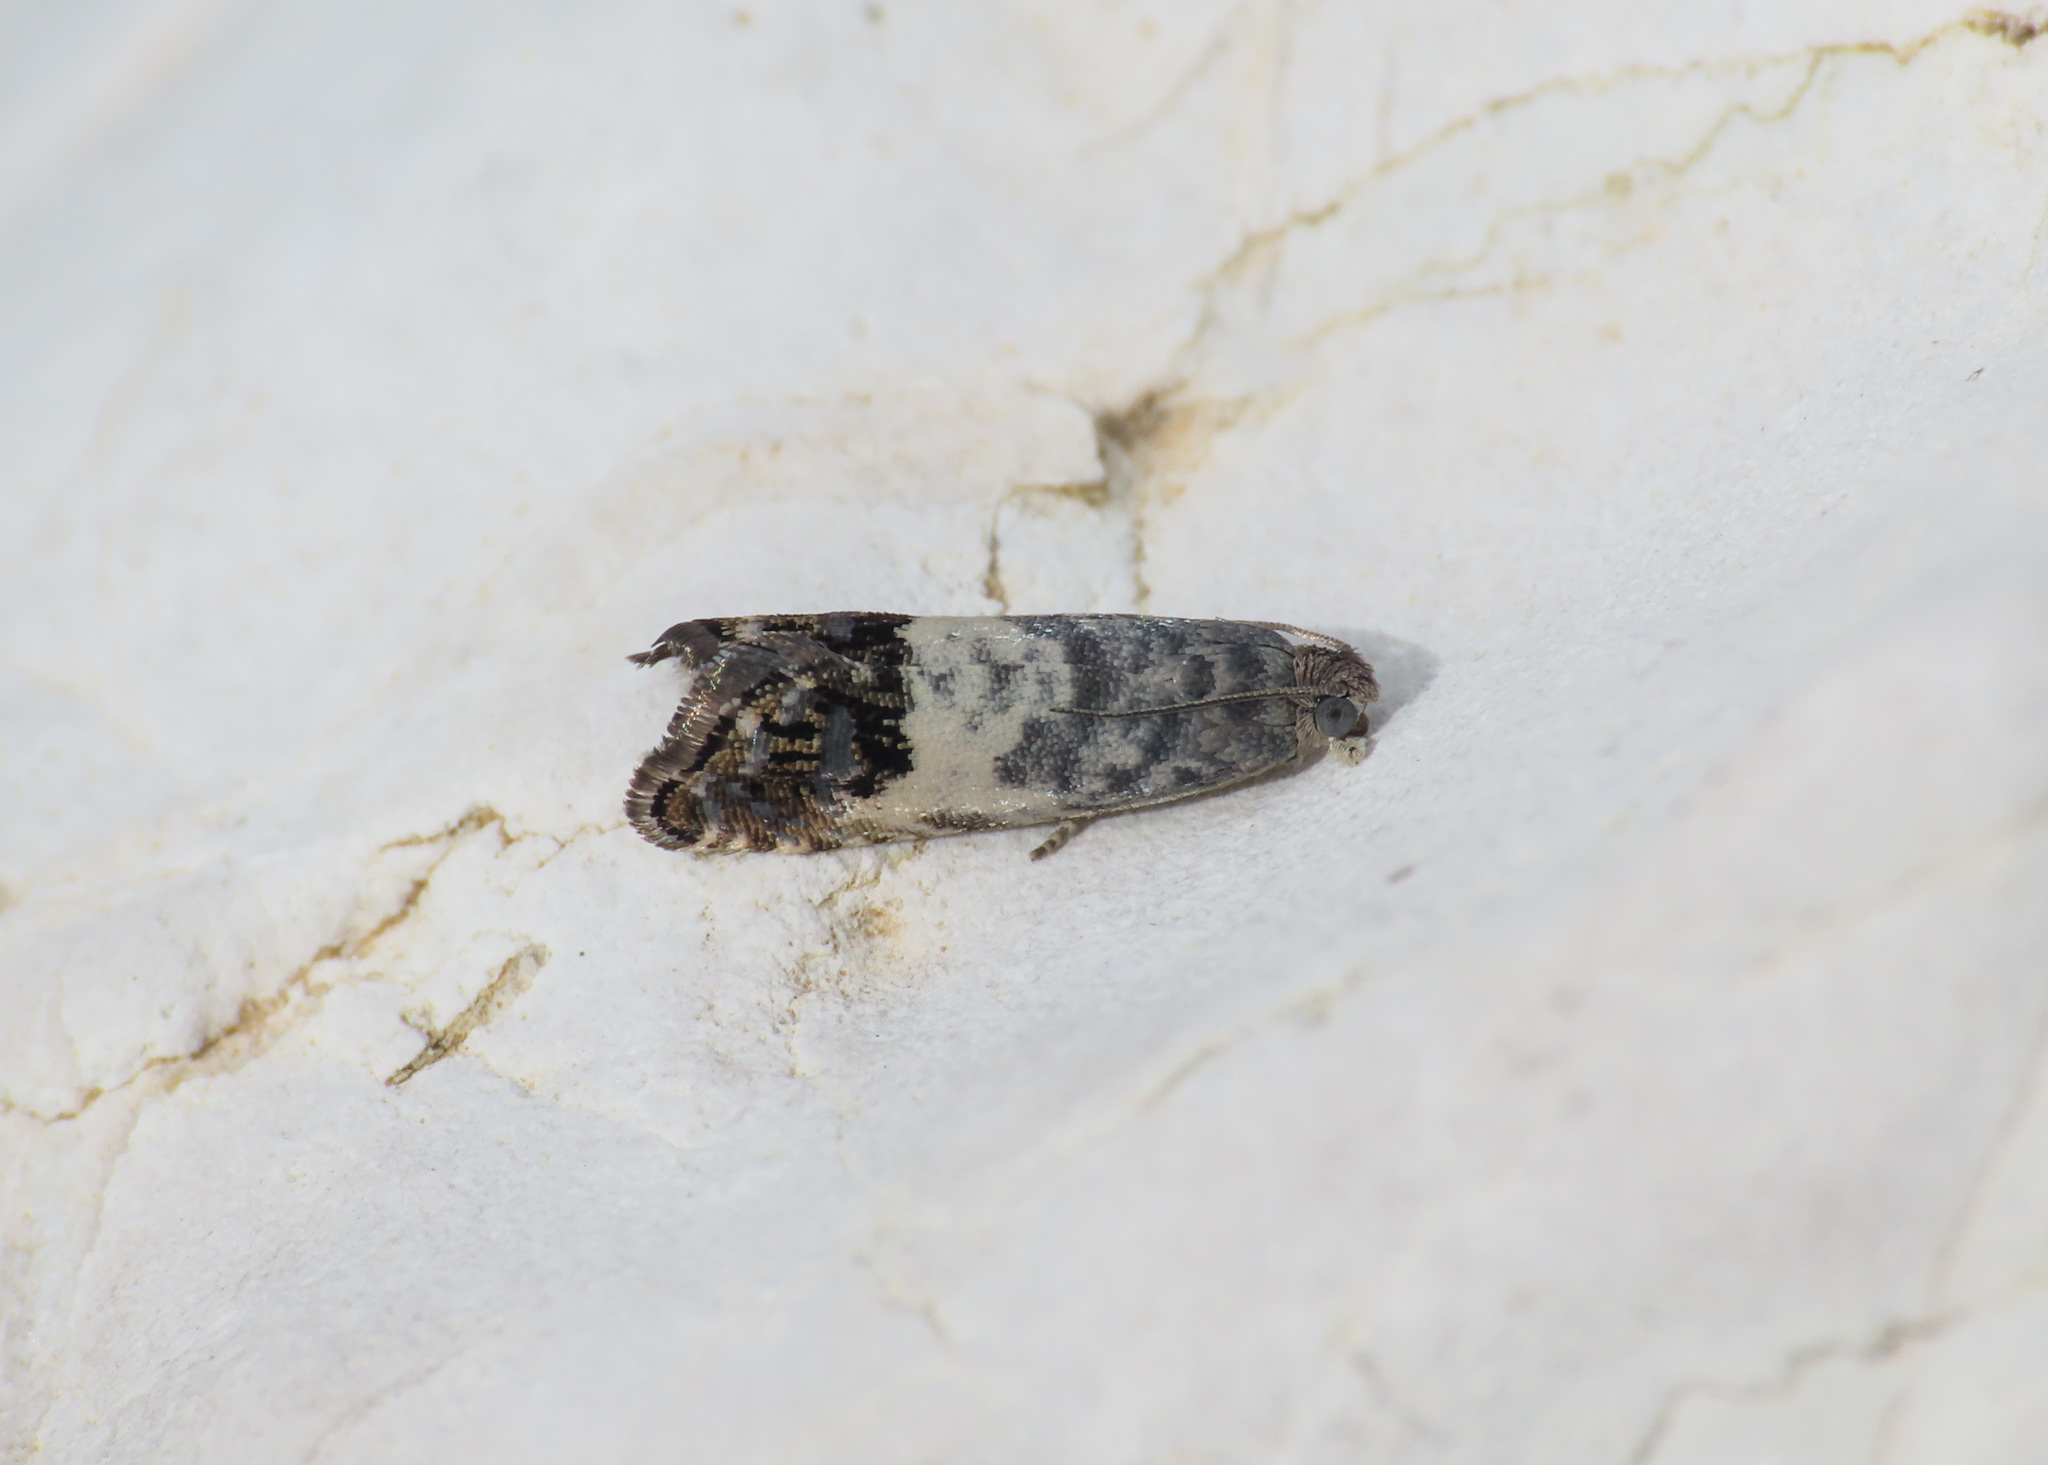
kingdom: Animalia
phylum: Arthropoda
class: Insecta
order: Lepidoptera
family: Tortricidae
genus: Cydia
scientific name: Cydia albipicta
